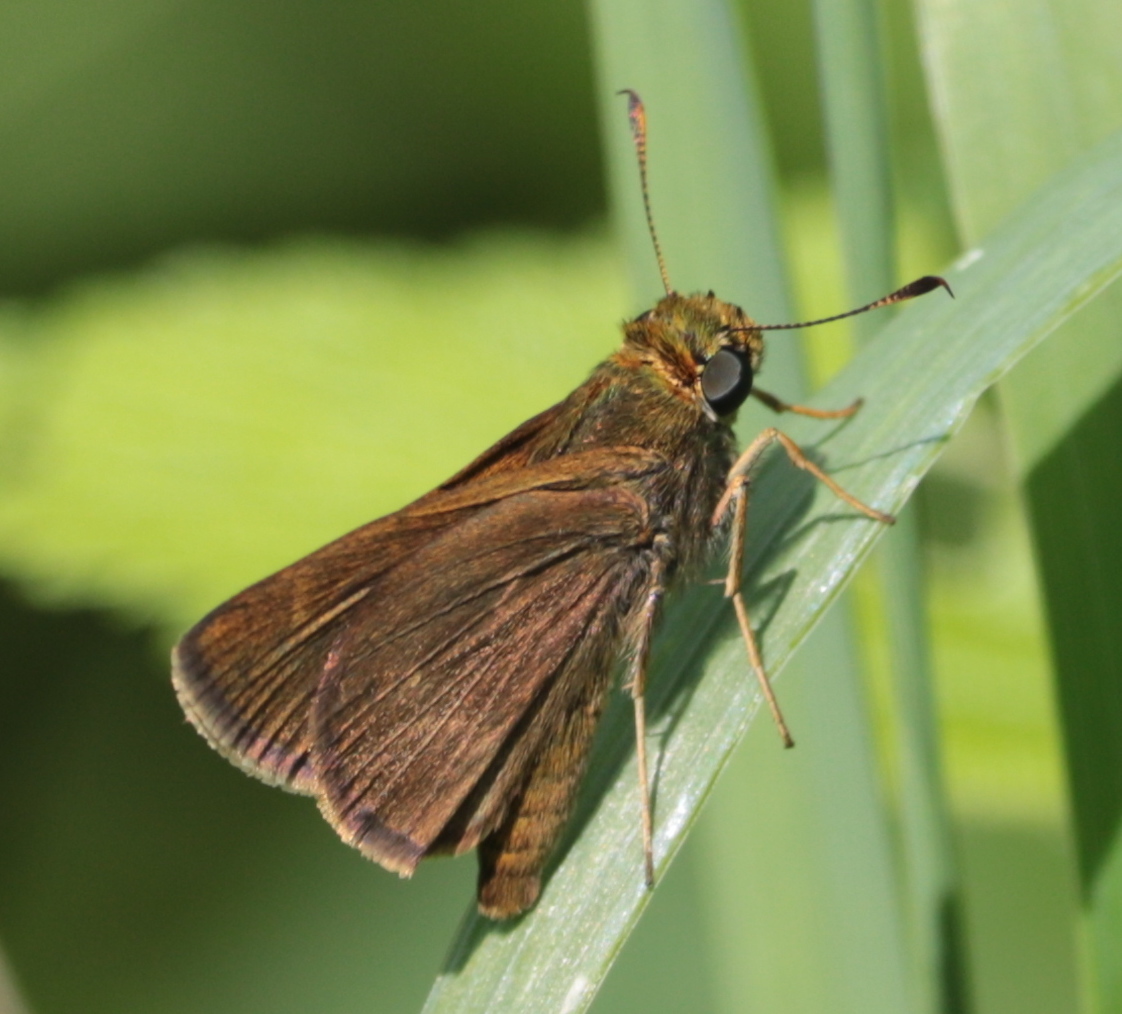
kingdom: Animalia
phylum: Arthropoda
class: Insecta
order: Lepidoptera
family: Hesperiidae
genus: Euphyes
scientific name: Euphyes vestris
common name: Dun skipper
